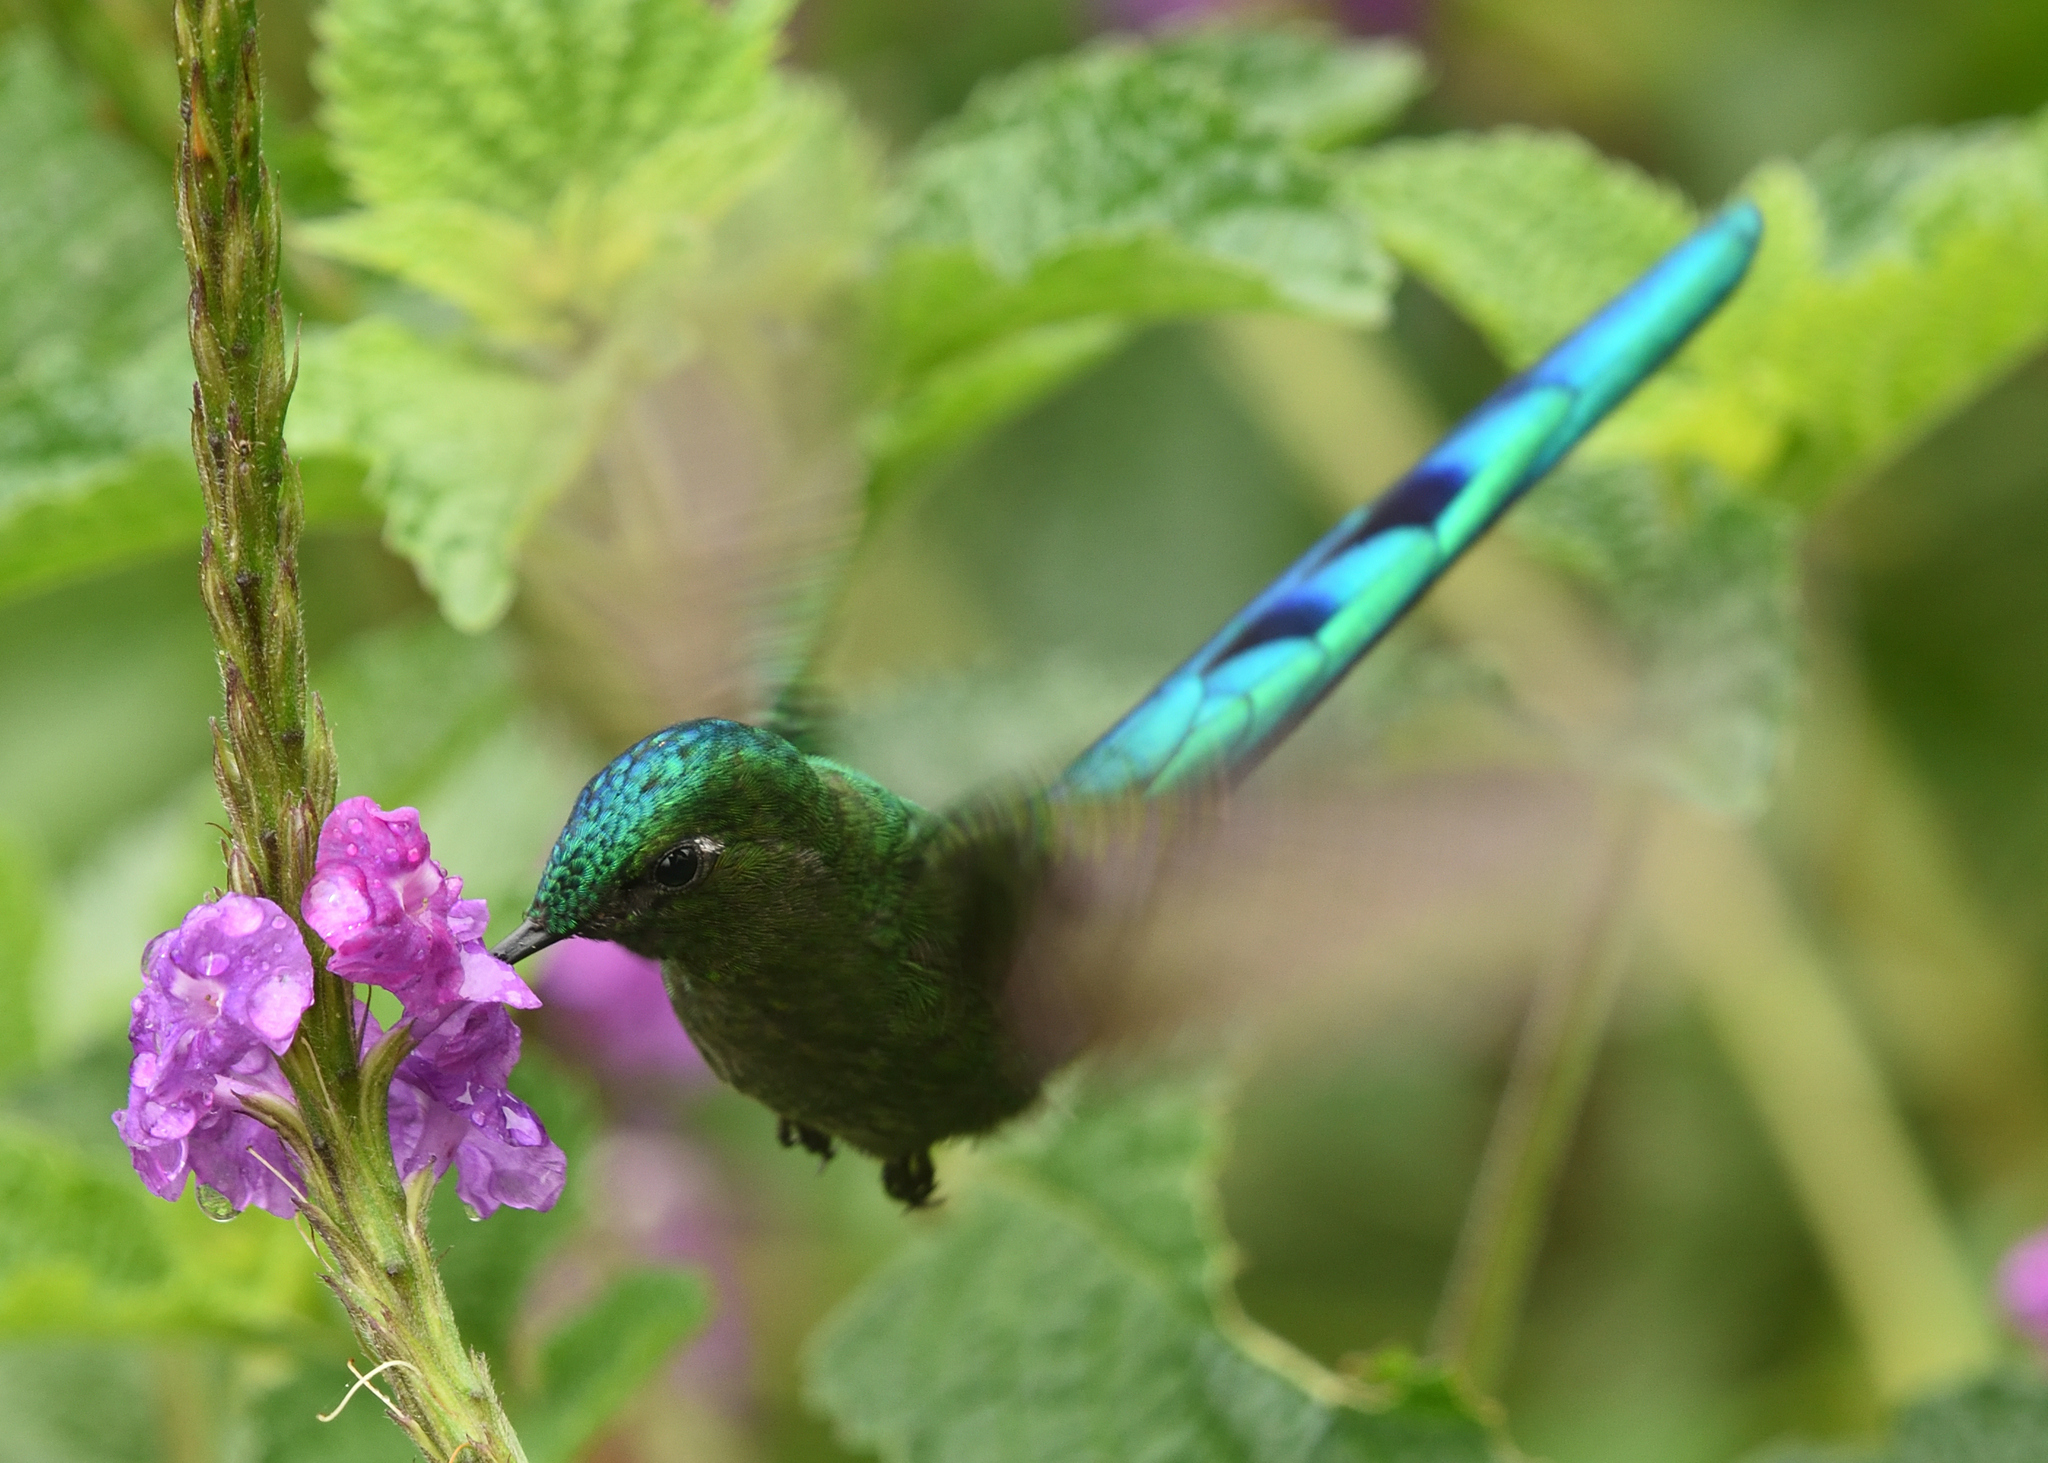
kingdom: Animalia
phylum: Chordata
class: Aves
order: Apodiformes
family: Trochilidae
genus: Aglaiocercus
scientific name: Aglaiocercus kingii
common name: Long-tailed sylph
